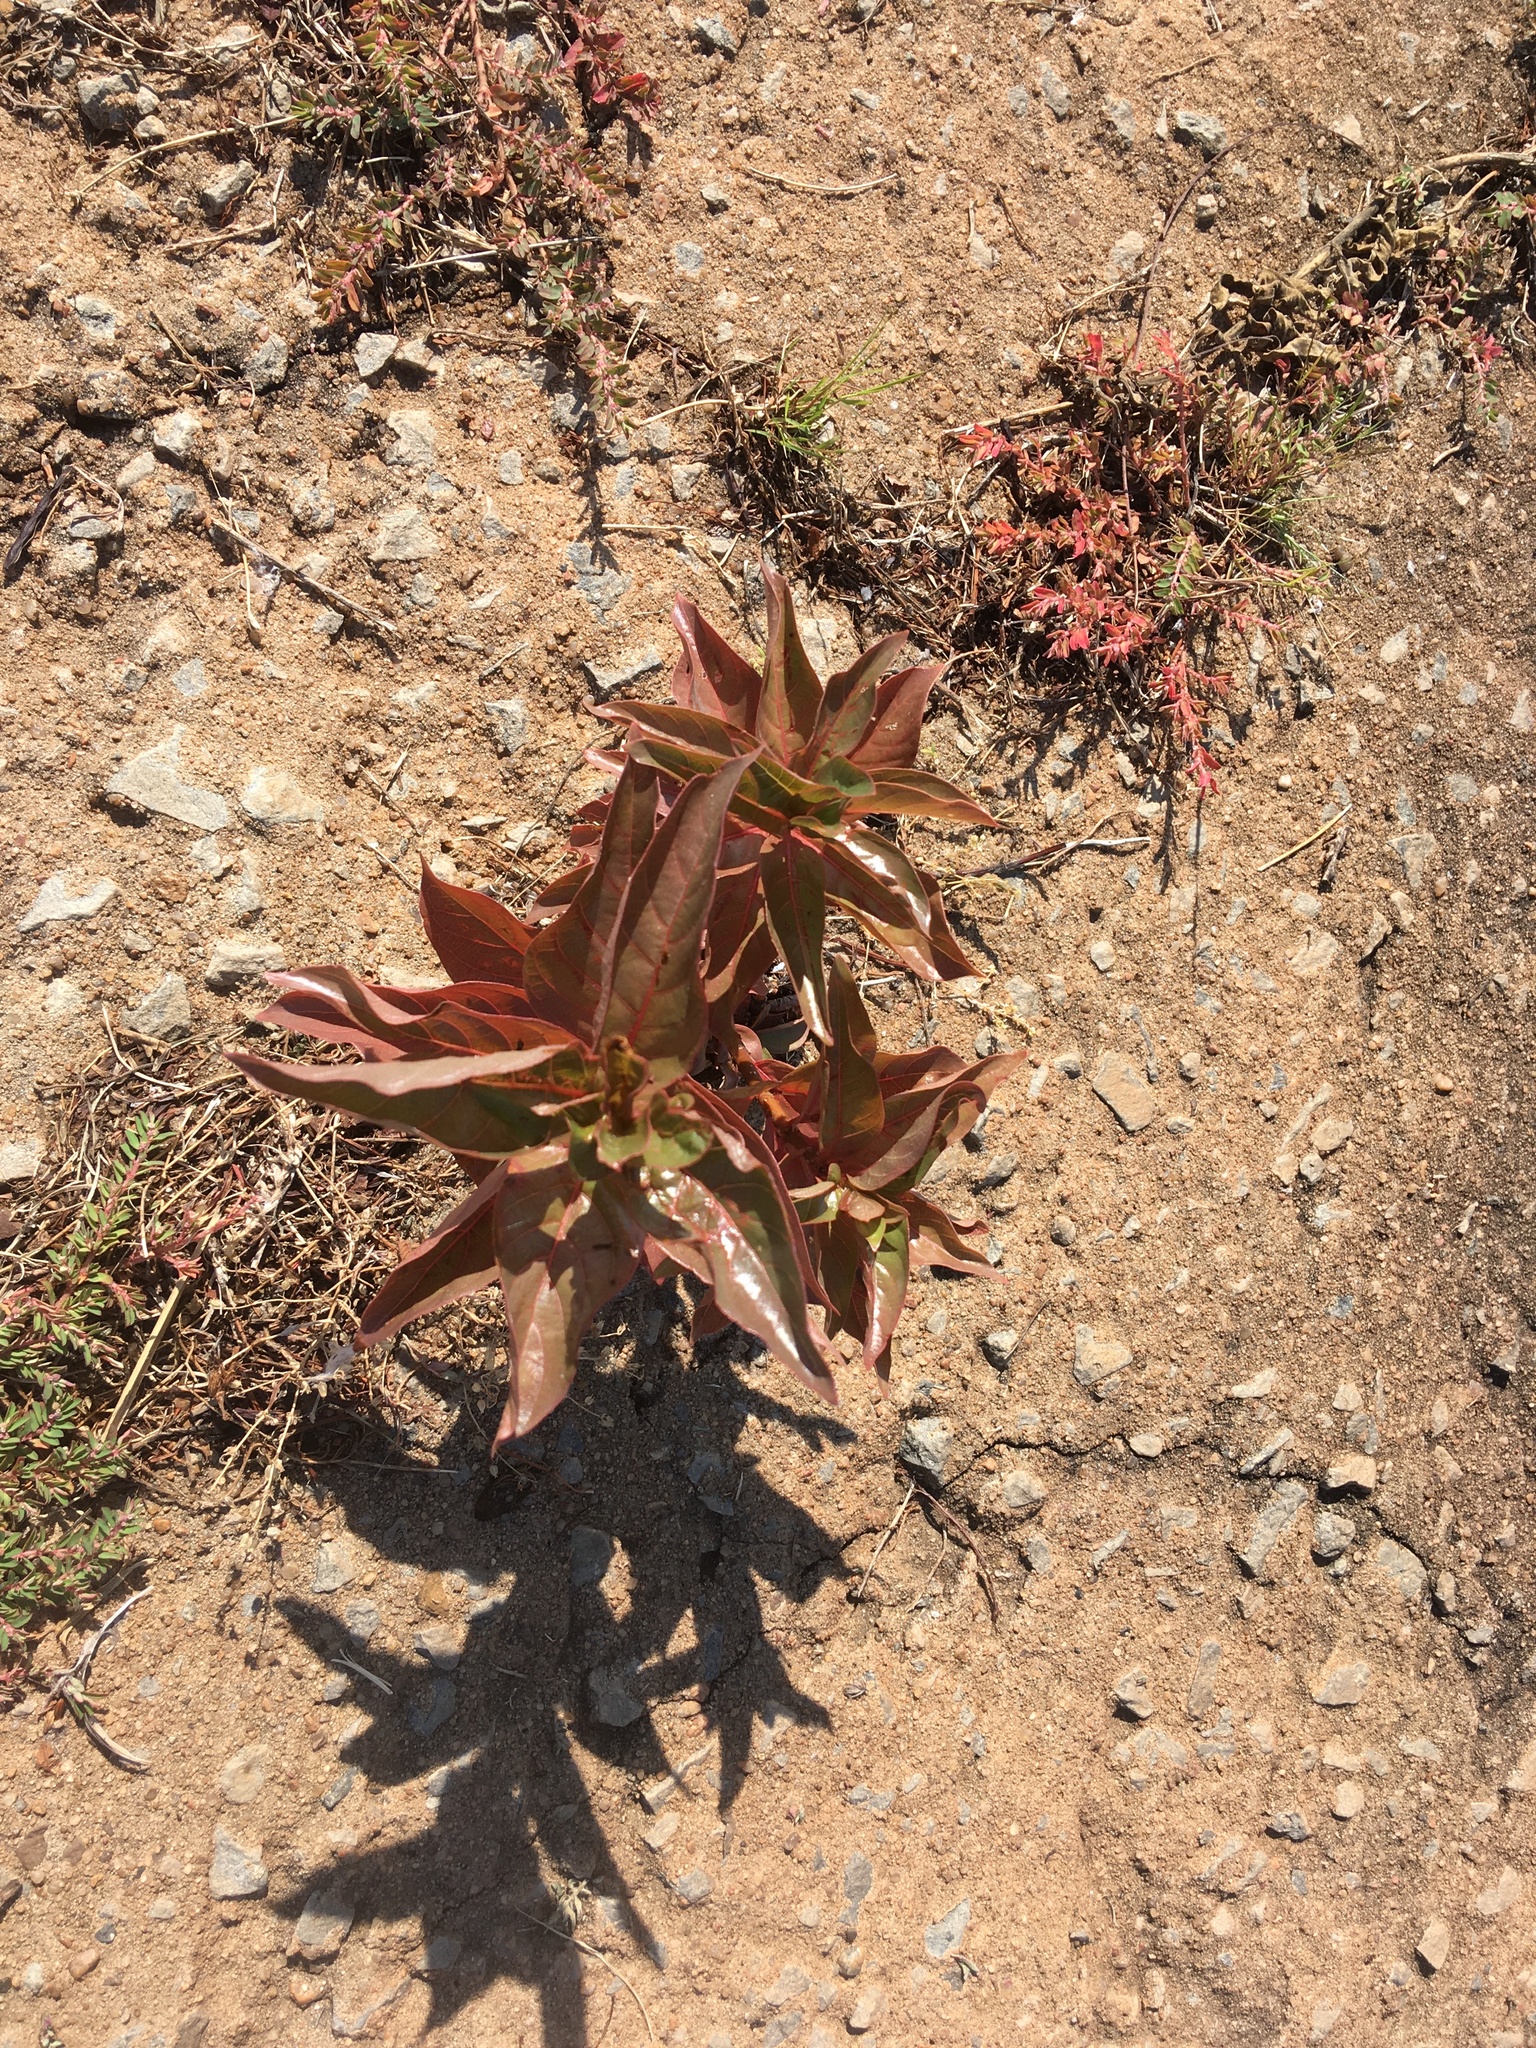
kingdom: Plantae
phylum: Tracheophyta
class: Magnoliopsida
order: Gentianales
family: Rubiaceae
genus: Cephalanthus
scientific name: Cephalanthus occidentalis
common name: Button-willow
